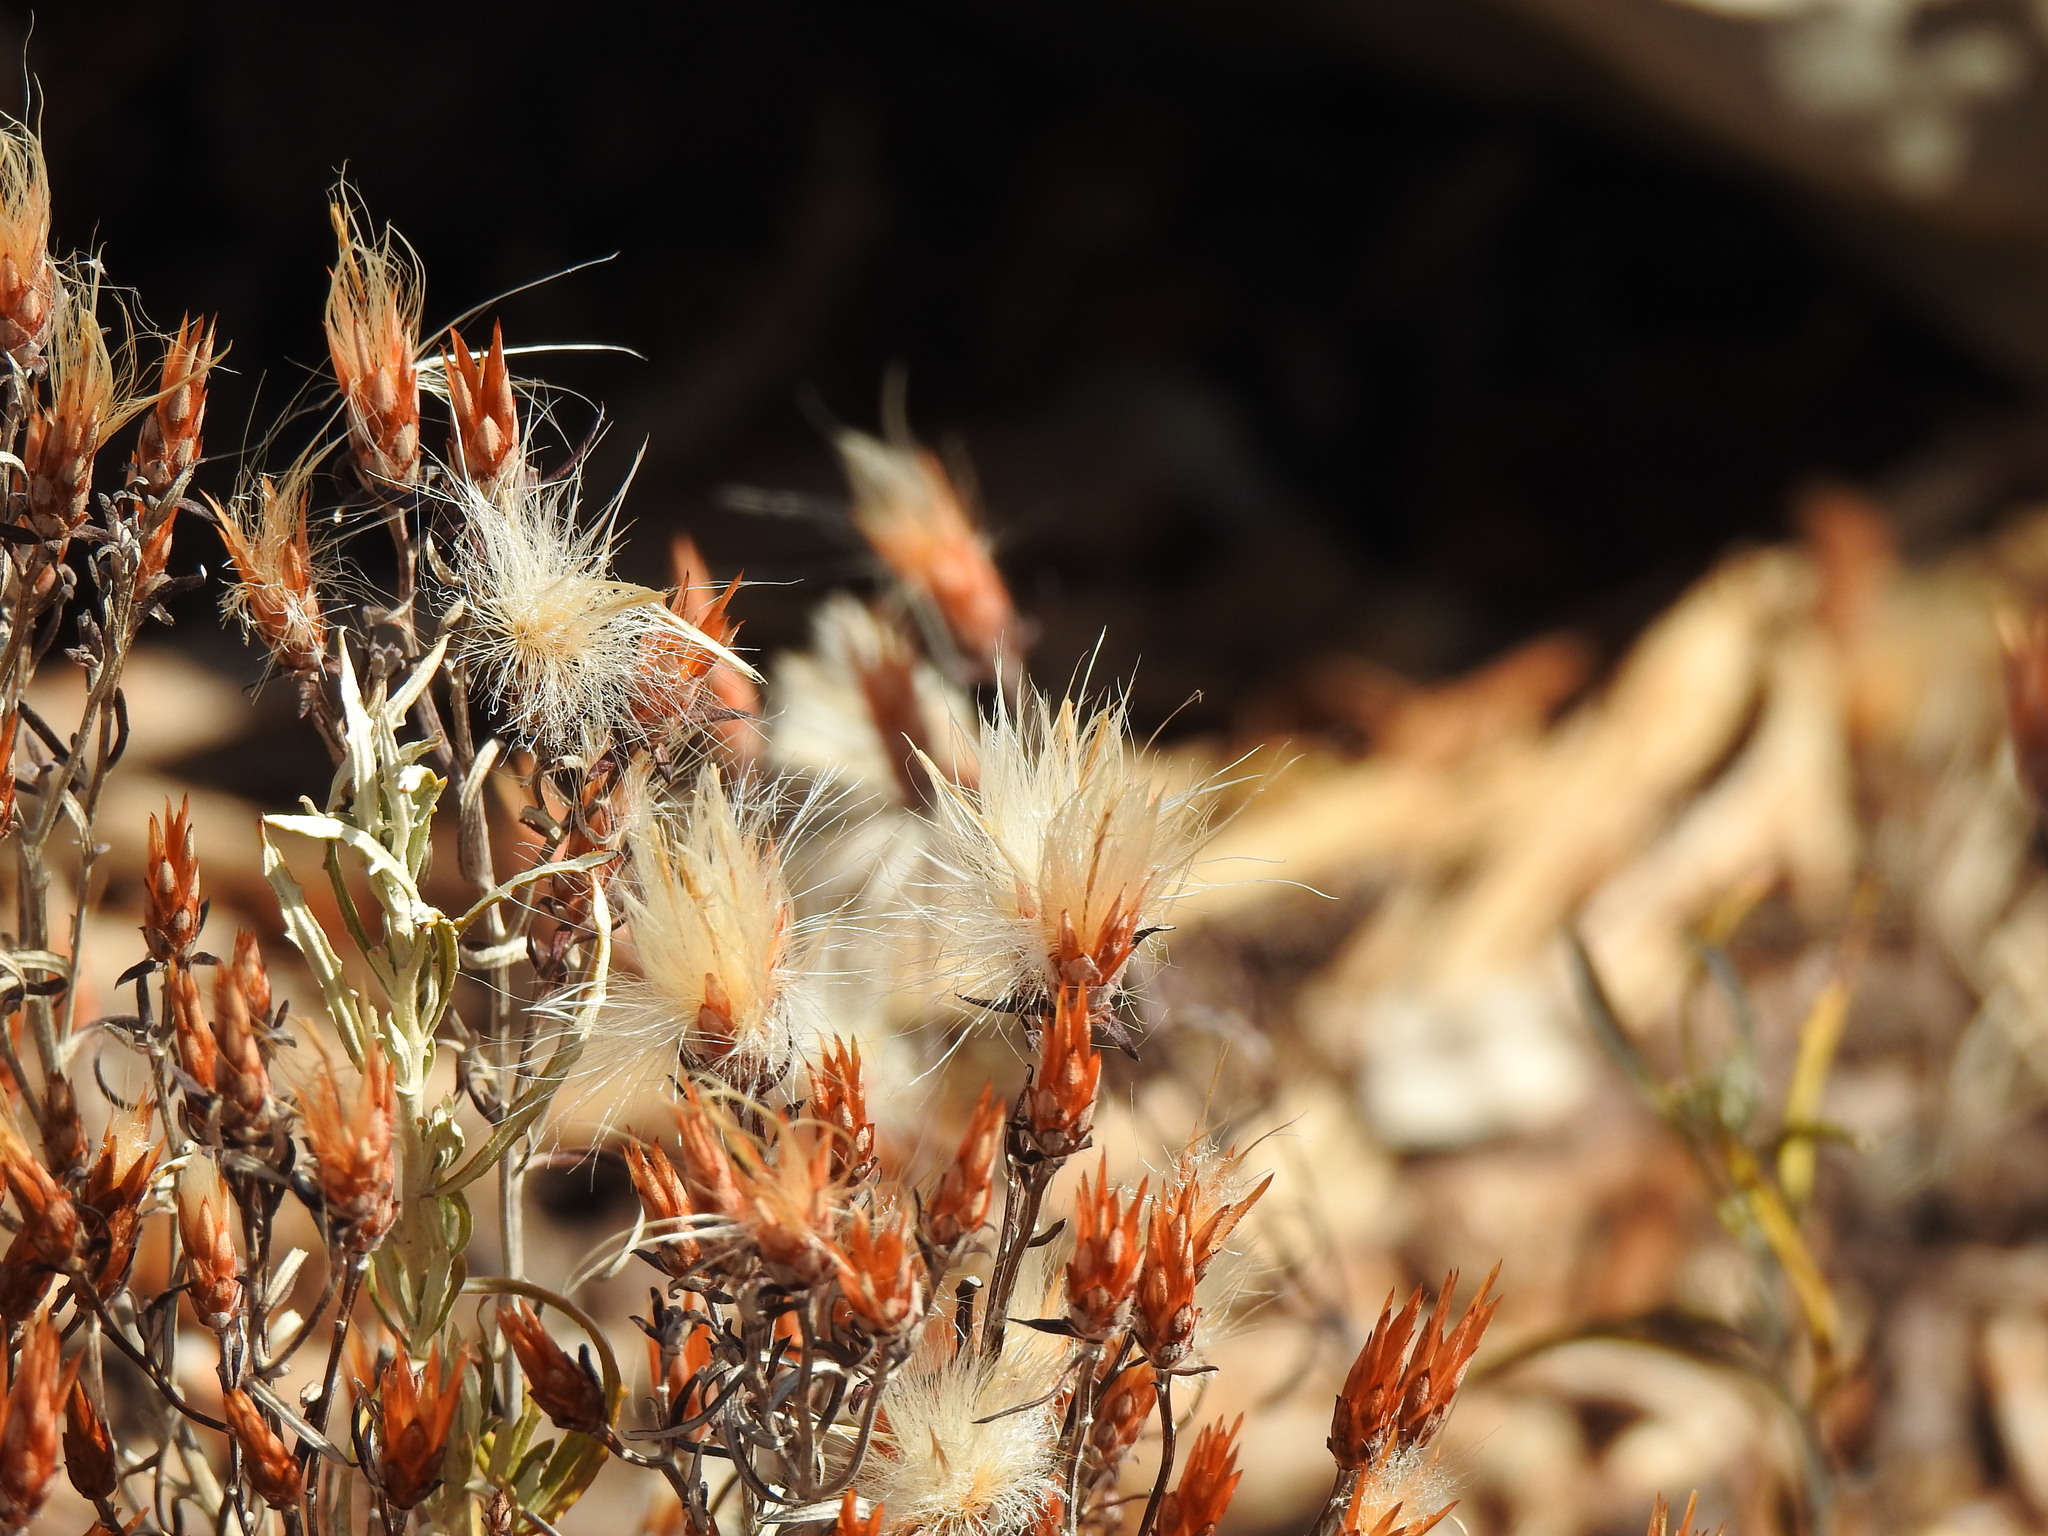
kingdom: Plantae
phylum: Tracheophyta
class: Magnoliopsida
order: Asterales
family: Asteraceae
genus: Staehelina
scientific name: Staehelina dubia
